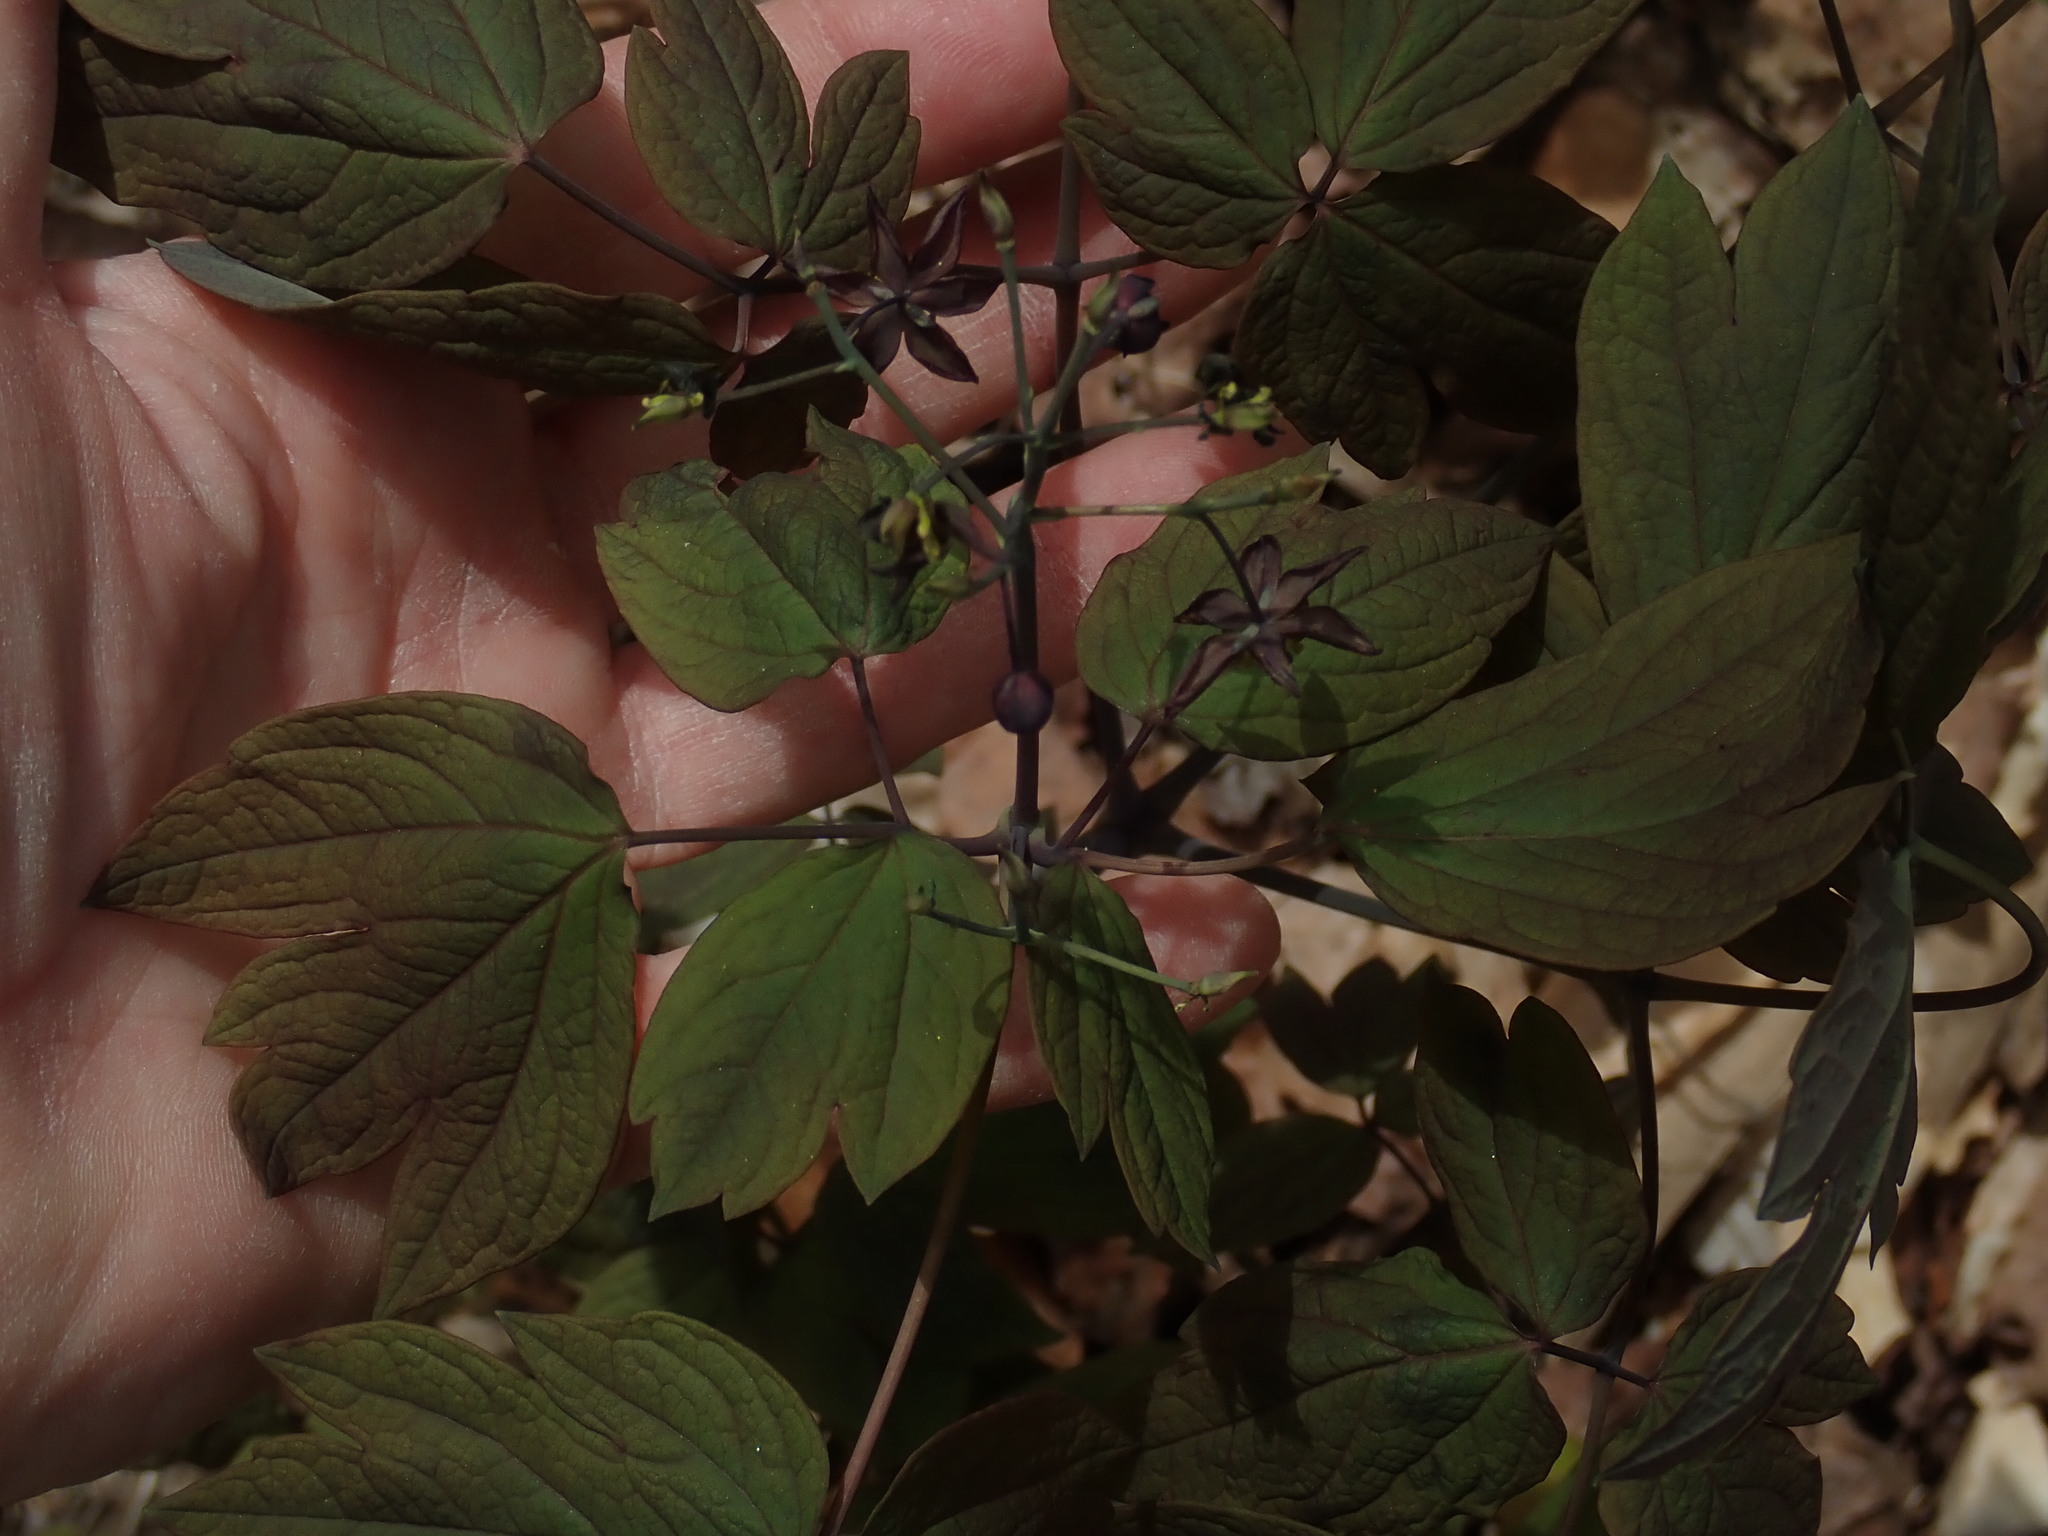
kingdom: Plantae
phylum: Tracheophyta
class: Magnoliopsida
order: Ranunculales
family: Berberidaceae
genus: Caulophyllum
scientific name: Caulophyllum giganteum
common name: Blue cohosh
